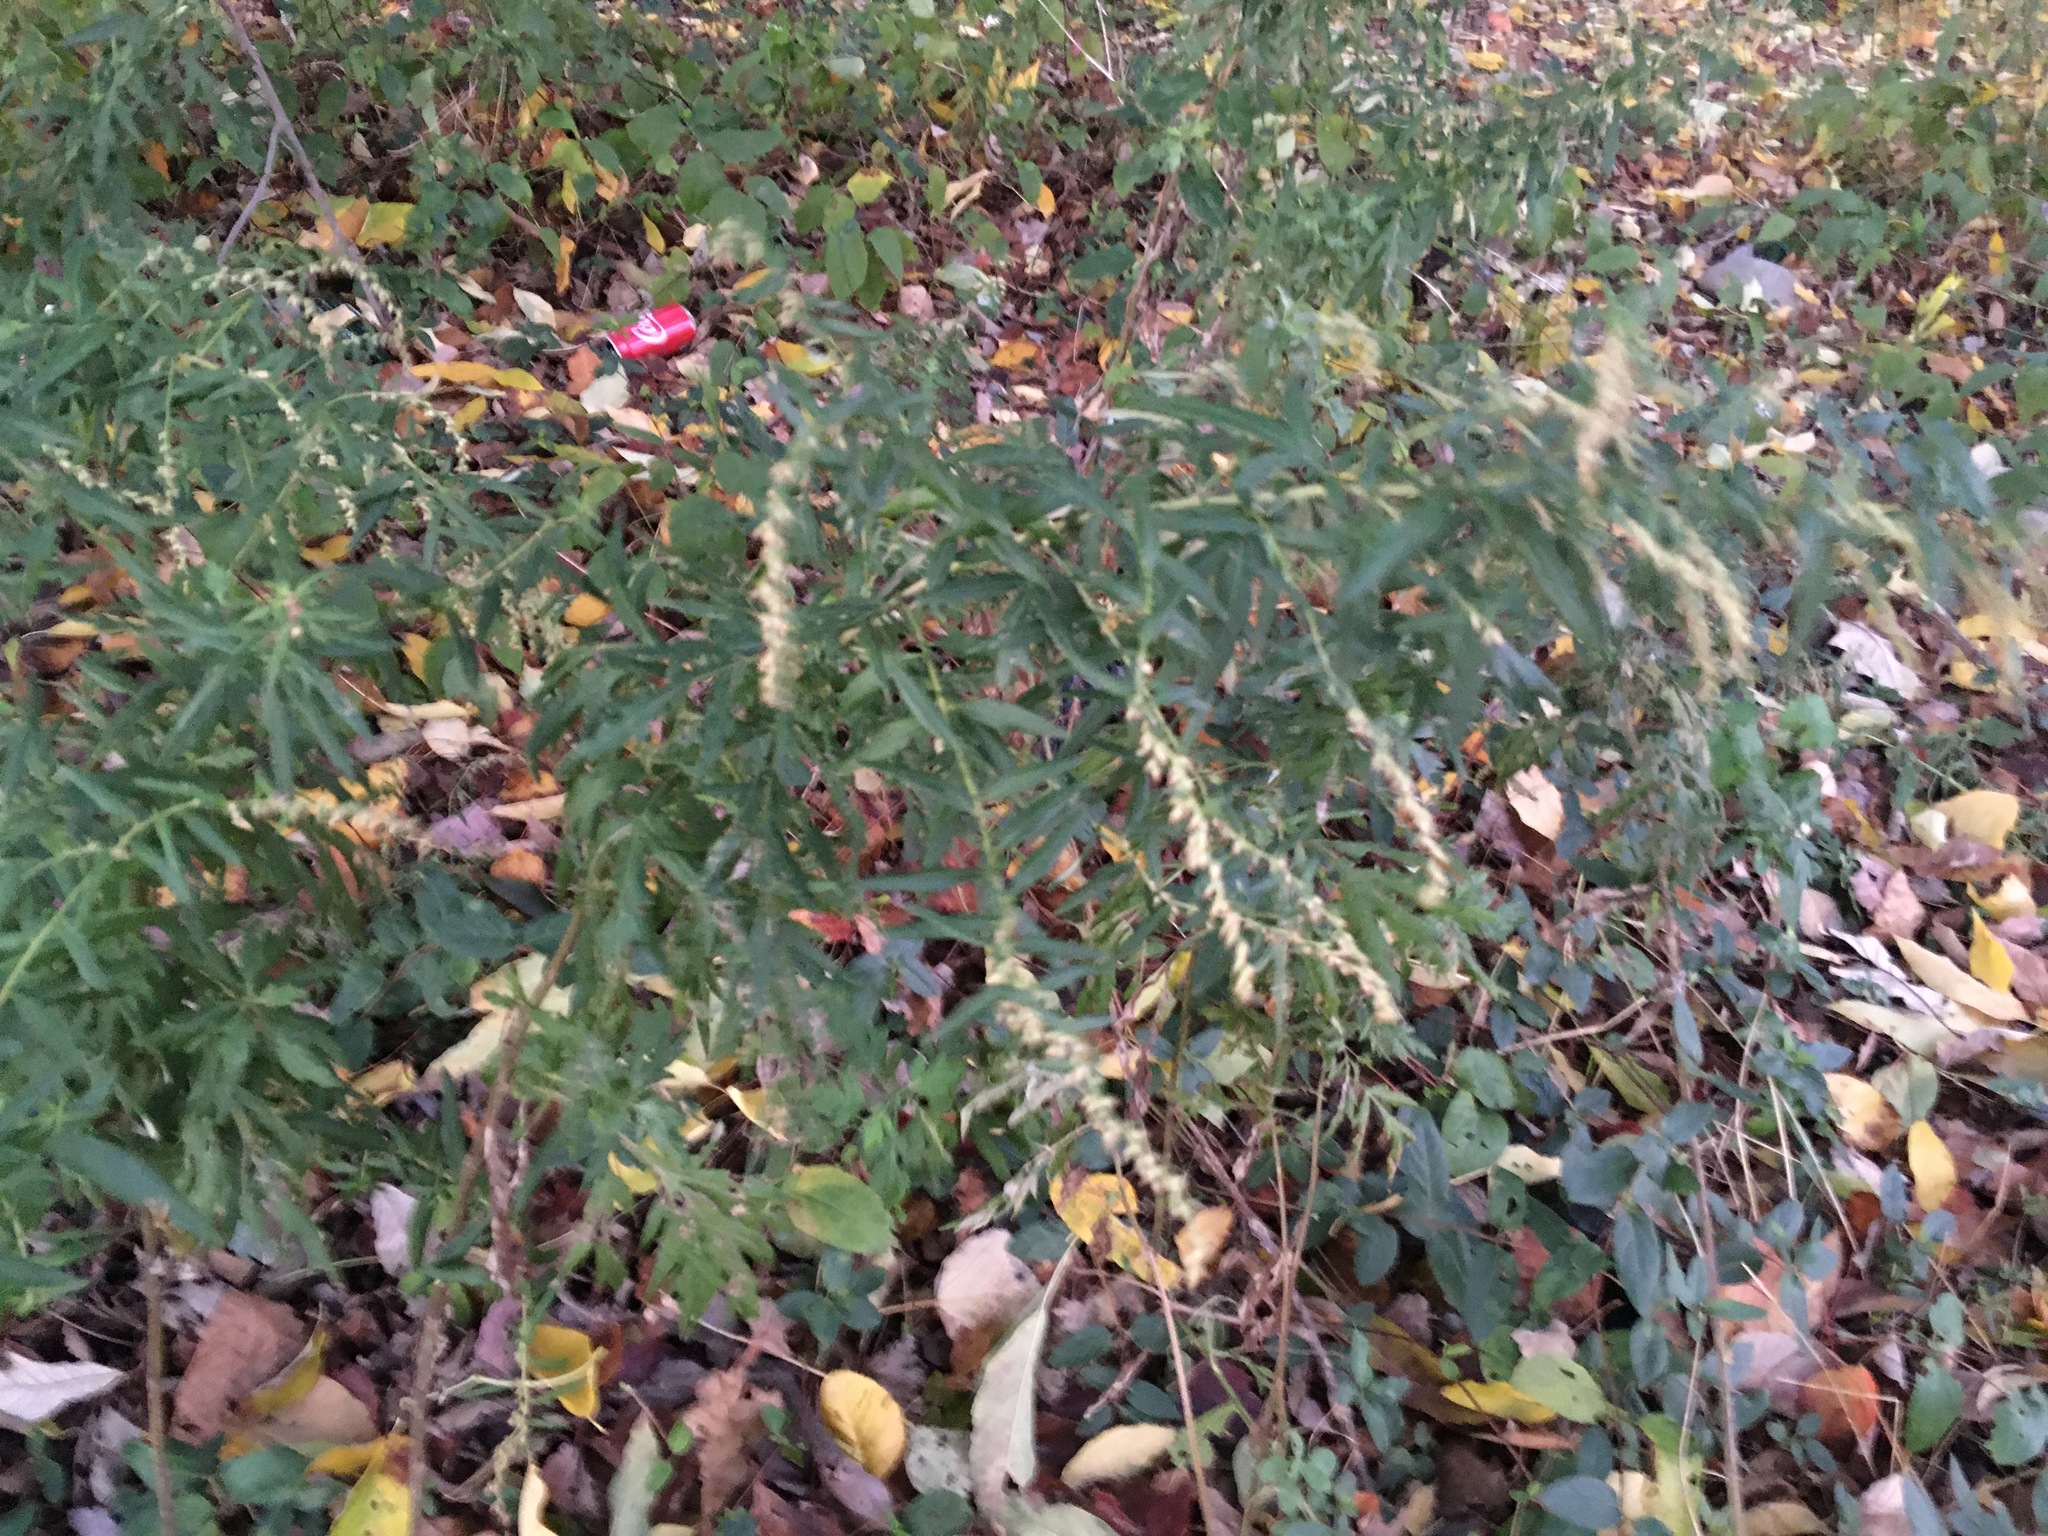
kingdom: Plantae
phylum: Tracheophyta
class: Magnoliopsida
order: Asterales
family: Asteraceae
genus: Artemisia
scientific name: Artemisia vulgaris
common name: Mugwort
